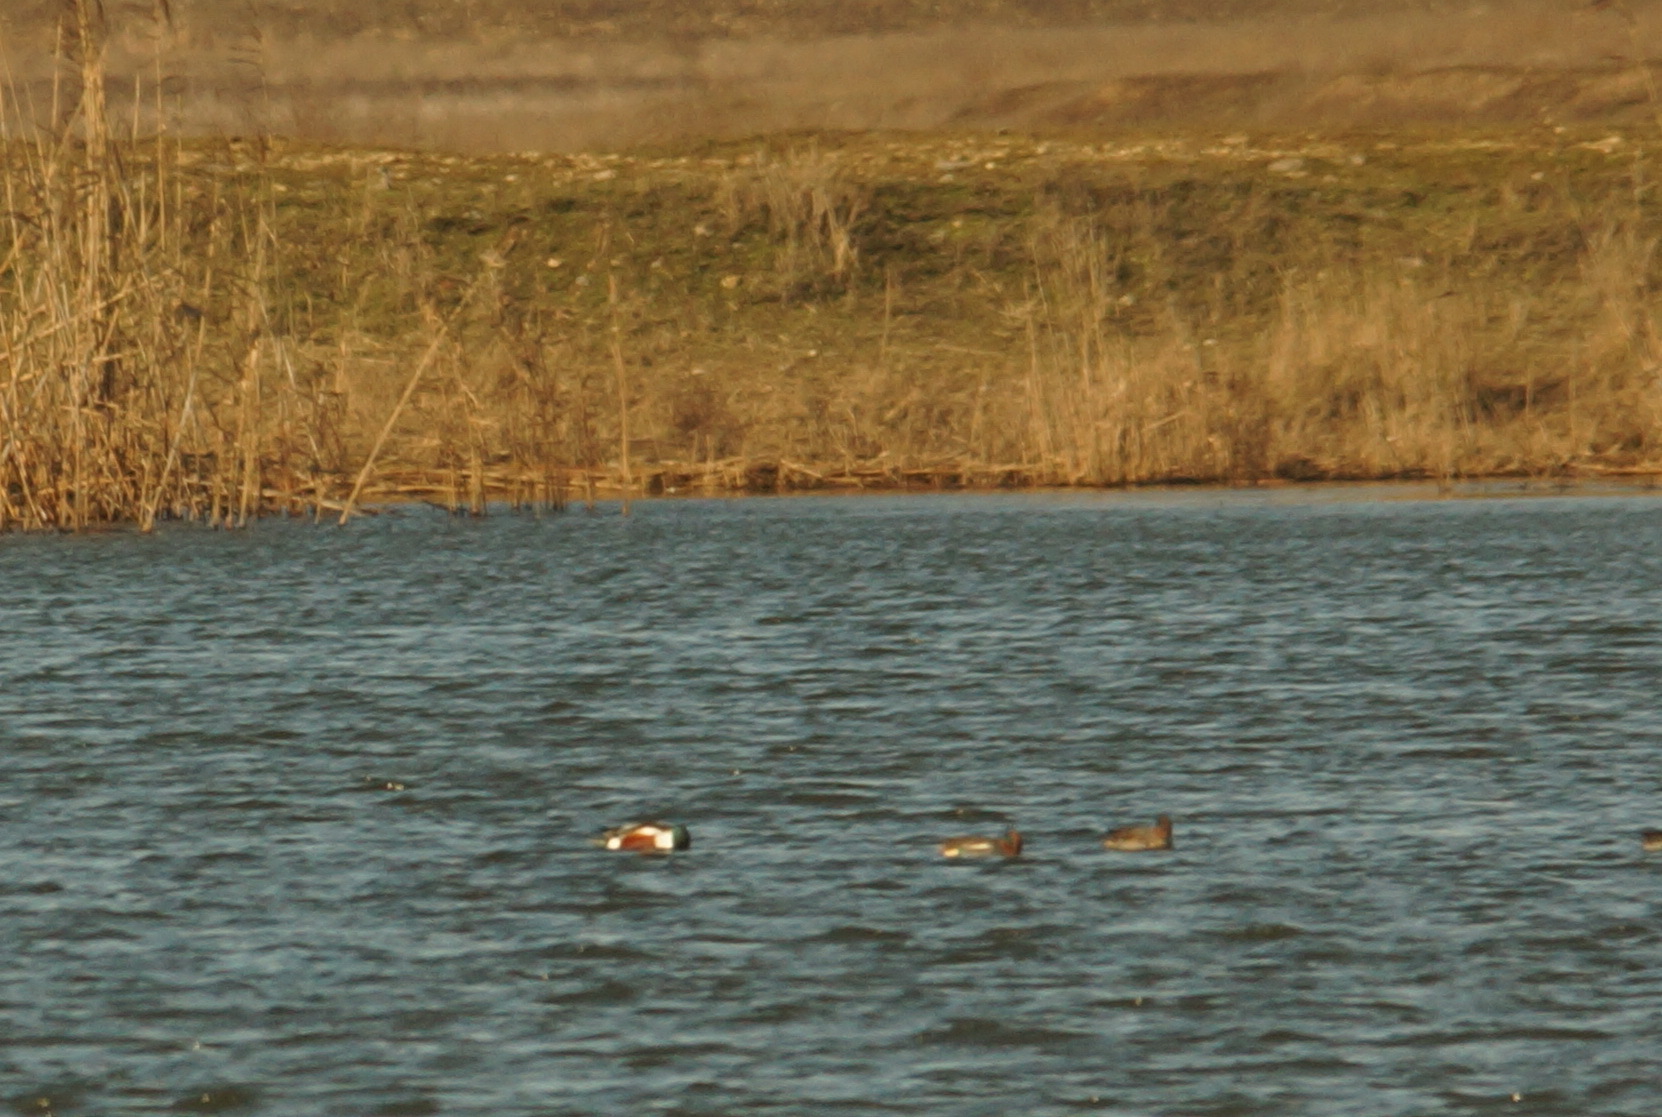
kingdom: Animalia
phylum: Chordata
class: Aves
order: Anseriformes
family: Anatidae
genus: Spatula
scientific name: Spatula clypeata
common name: Northern shoveler
